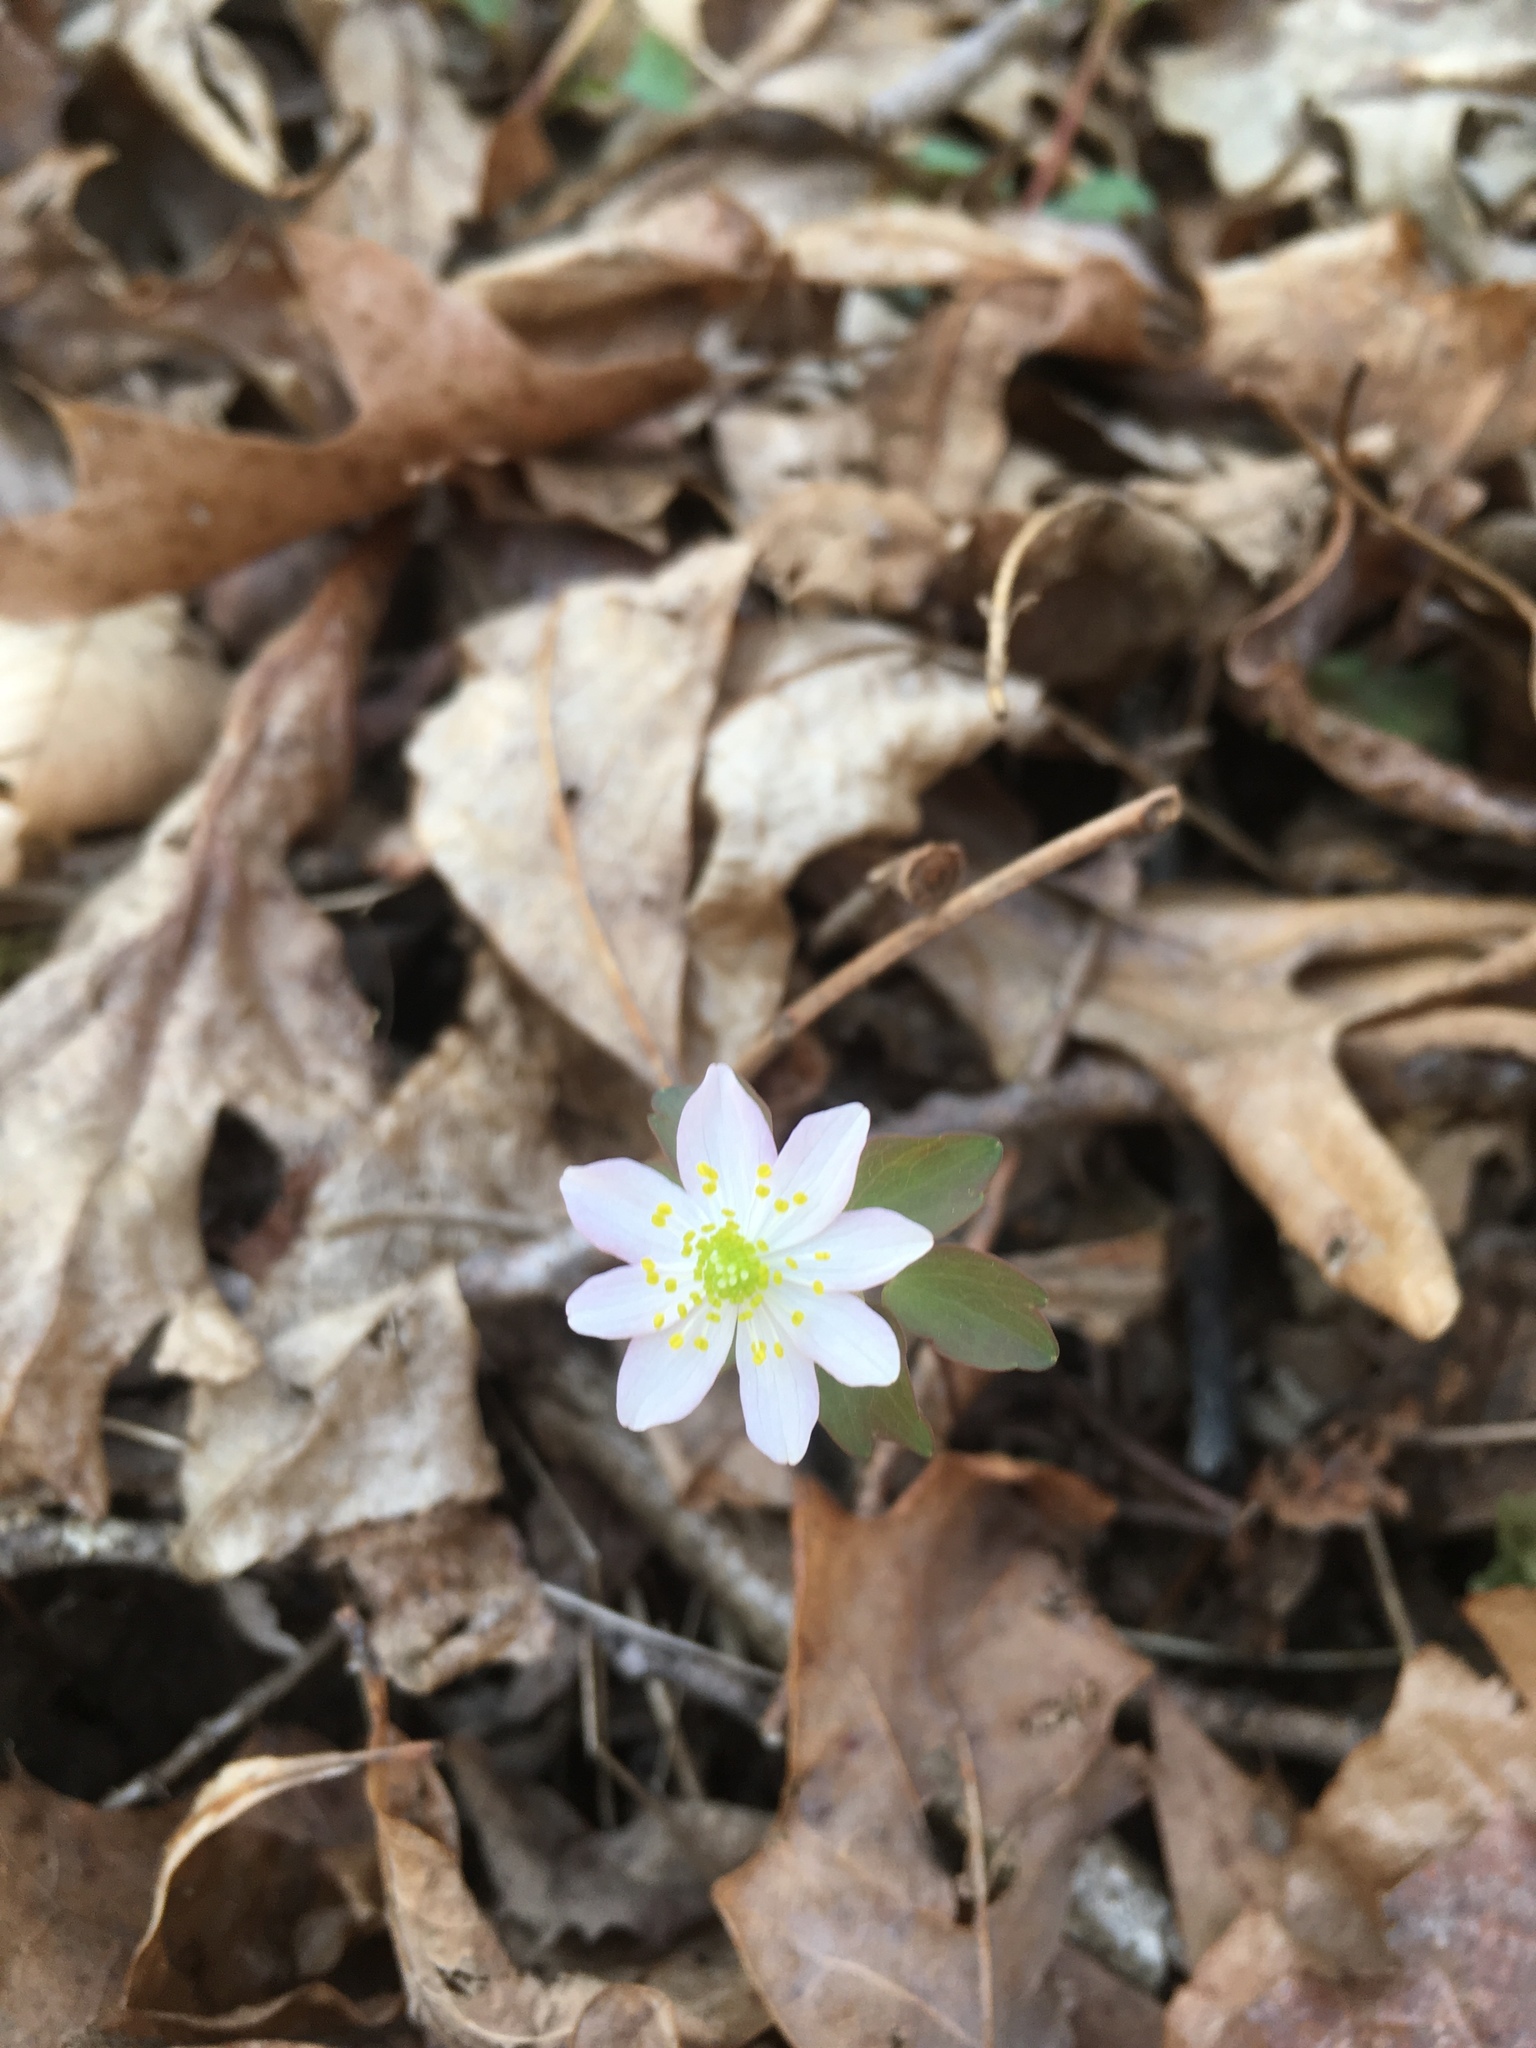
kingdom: Plantae
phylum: Tracheophyta
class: Magnoliopsida
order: Ranunculales
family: Ranunculaceae
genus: Thalictrum
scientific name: Thalictrum thalictroides
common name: Rue-anemone
